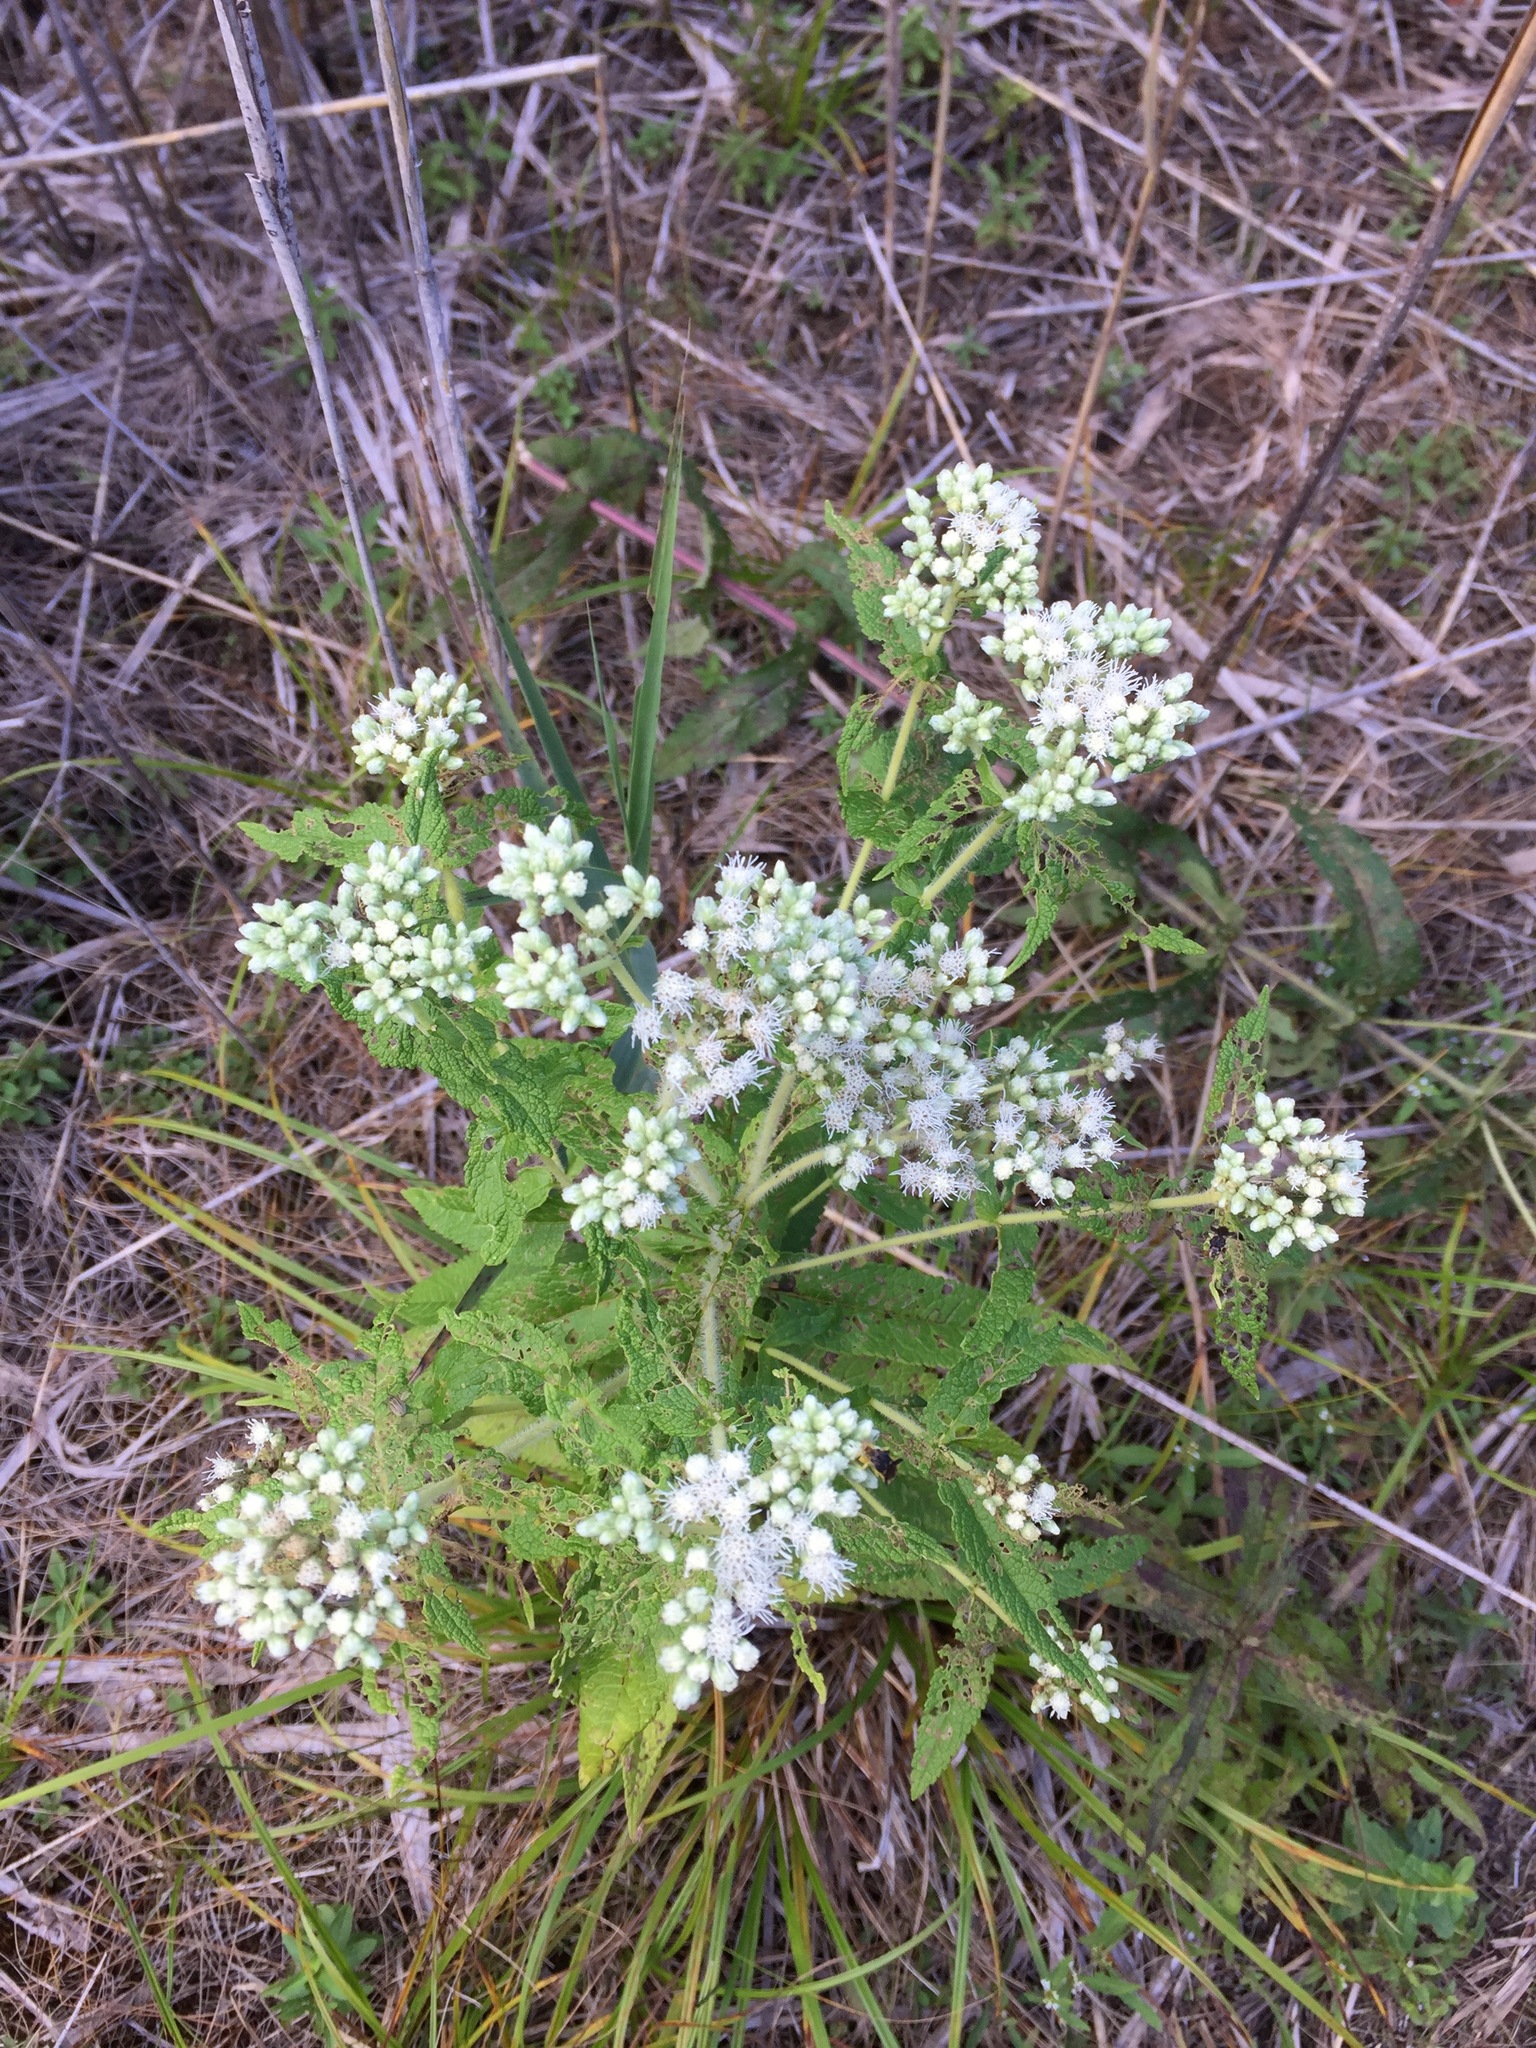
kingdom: Plantae
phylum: Tracheophyta
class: Magnoliopsida
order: Asterales
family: Asteraceae
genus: Eupatorium
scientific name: Eupatorium perfoliatum
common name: Boneset
